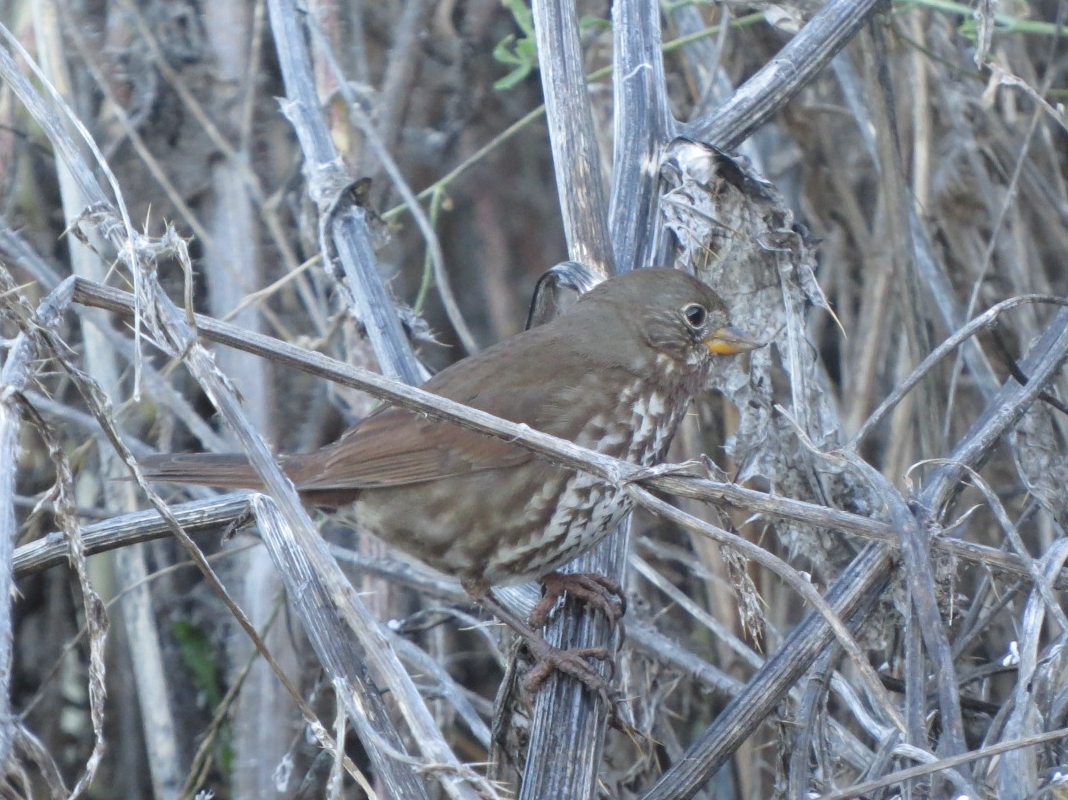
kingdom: Animalia
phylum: Chordata
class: Aves
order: Passeriformes
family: Passerellidae
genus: Passerella
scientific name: Passerella iliaca
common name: Fox sparrow
